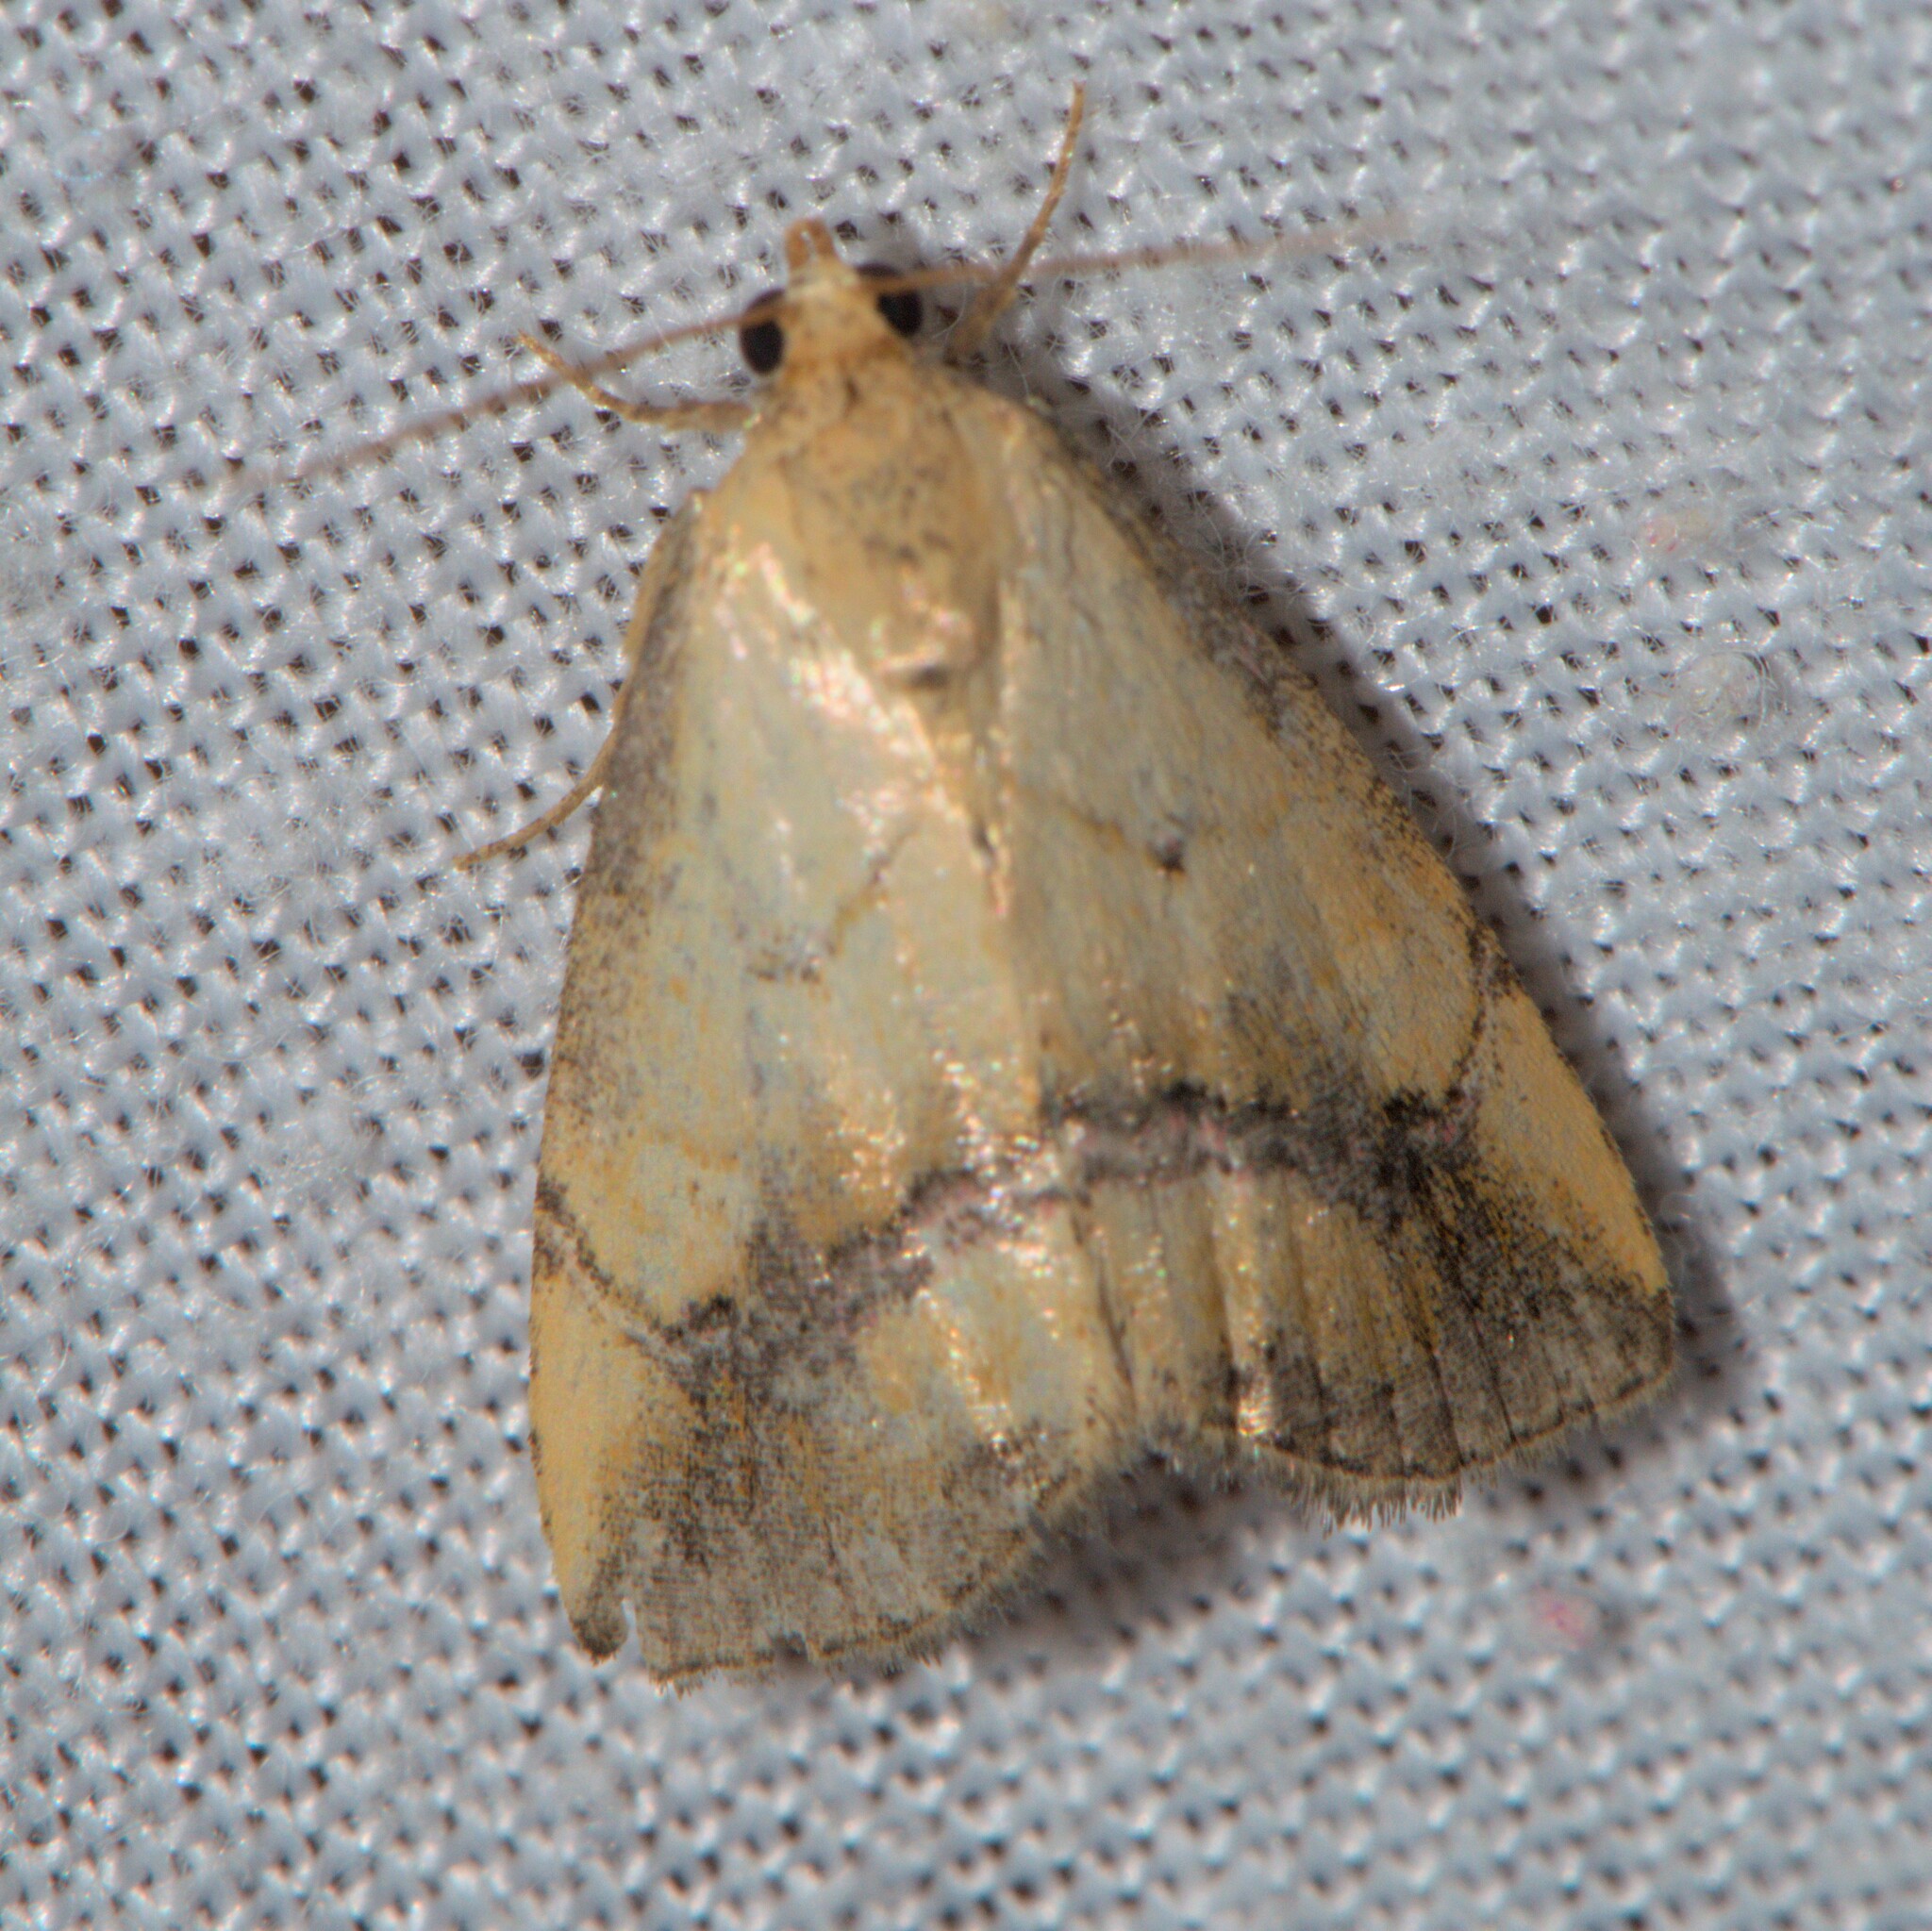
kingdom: Animalia
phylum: Arthropoda
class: Insecta
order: Lepidoptera
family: Noctuidae
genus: Maliattha
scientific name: Maliattha plumbata
